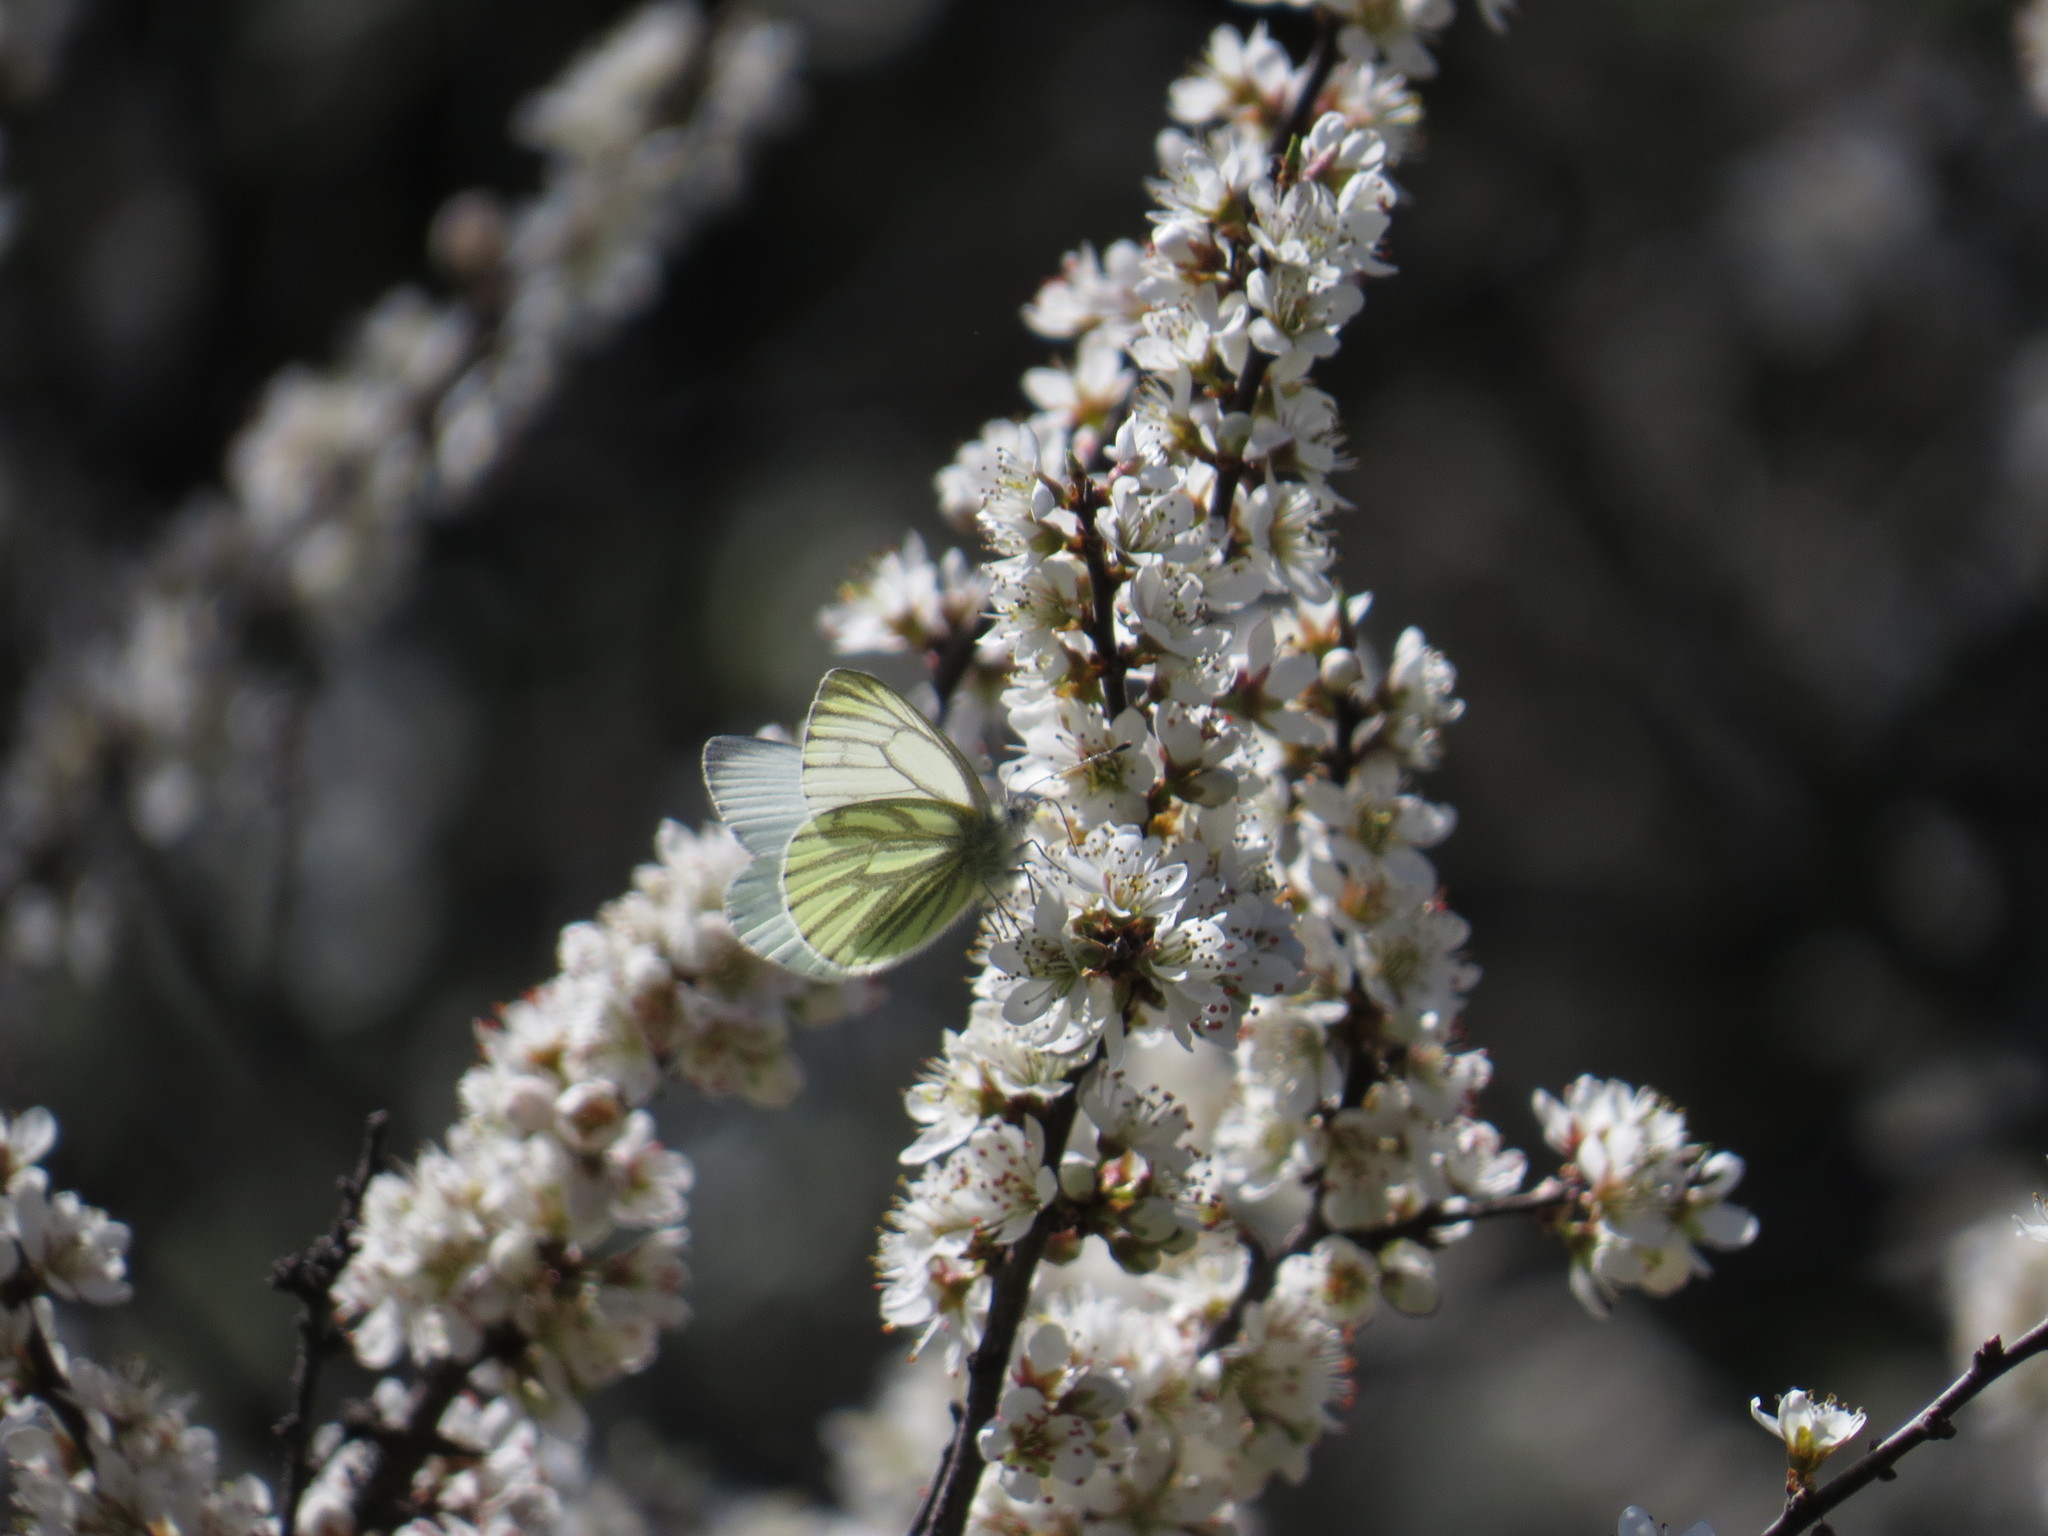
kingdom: Animalia
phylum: Arthropoda
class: Insecta
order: Lepidoptera
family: Pieridae
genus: Pieris
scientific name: Pieris napi
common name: Green-veined white
